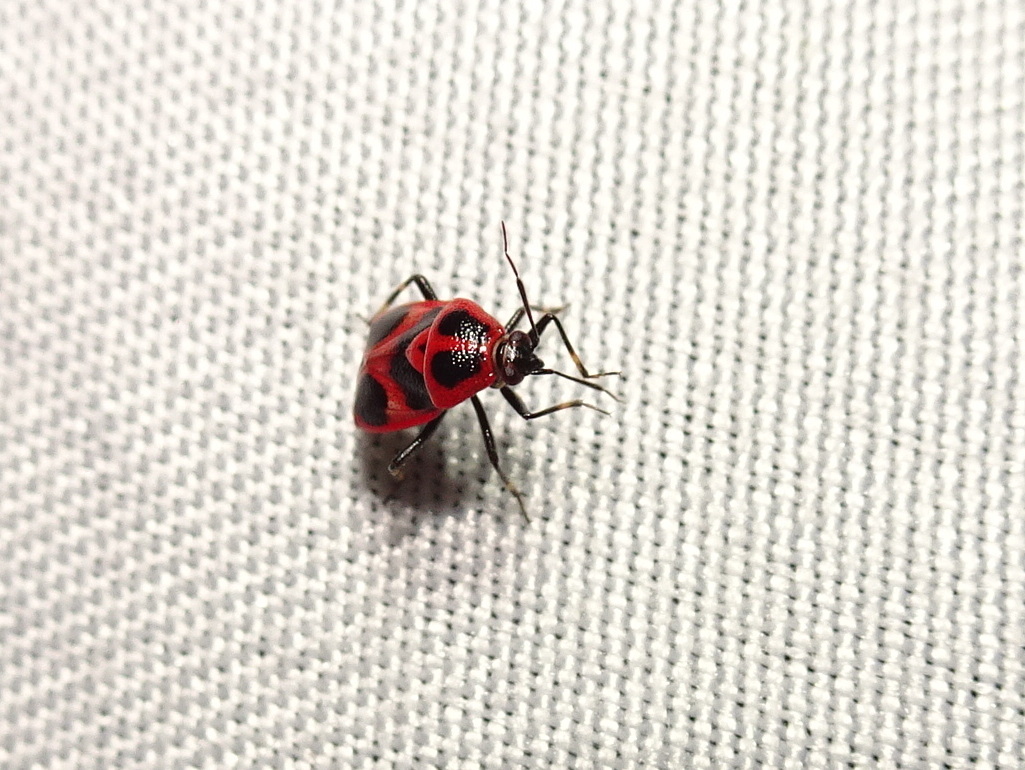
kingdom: Animalia
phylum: Arthropoda
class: Insecta
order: Hemiptera
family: Miridae
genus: Deraeocoris
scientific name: Deraeocoris histrio
